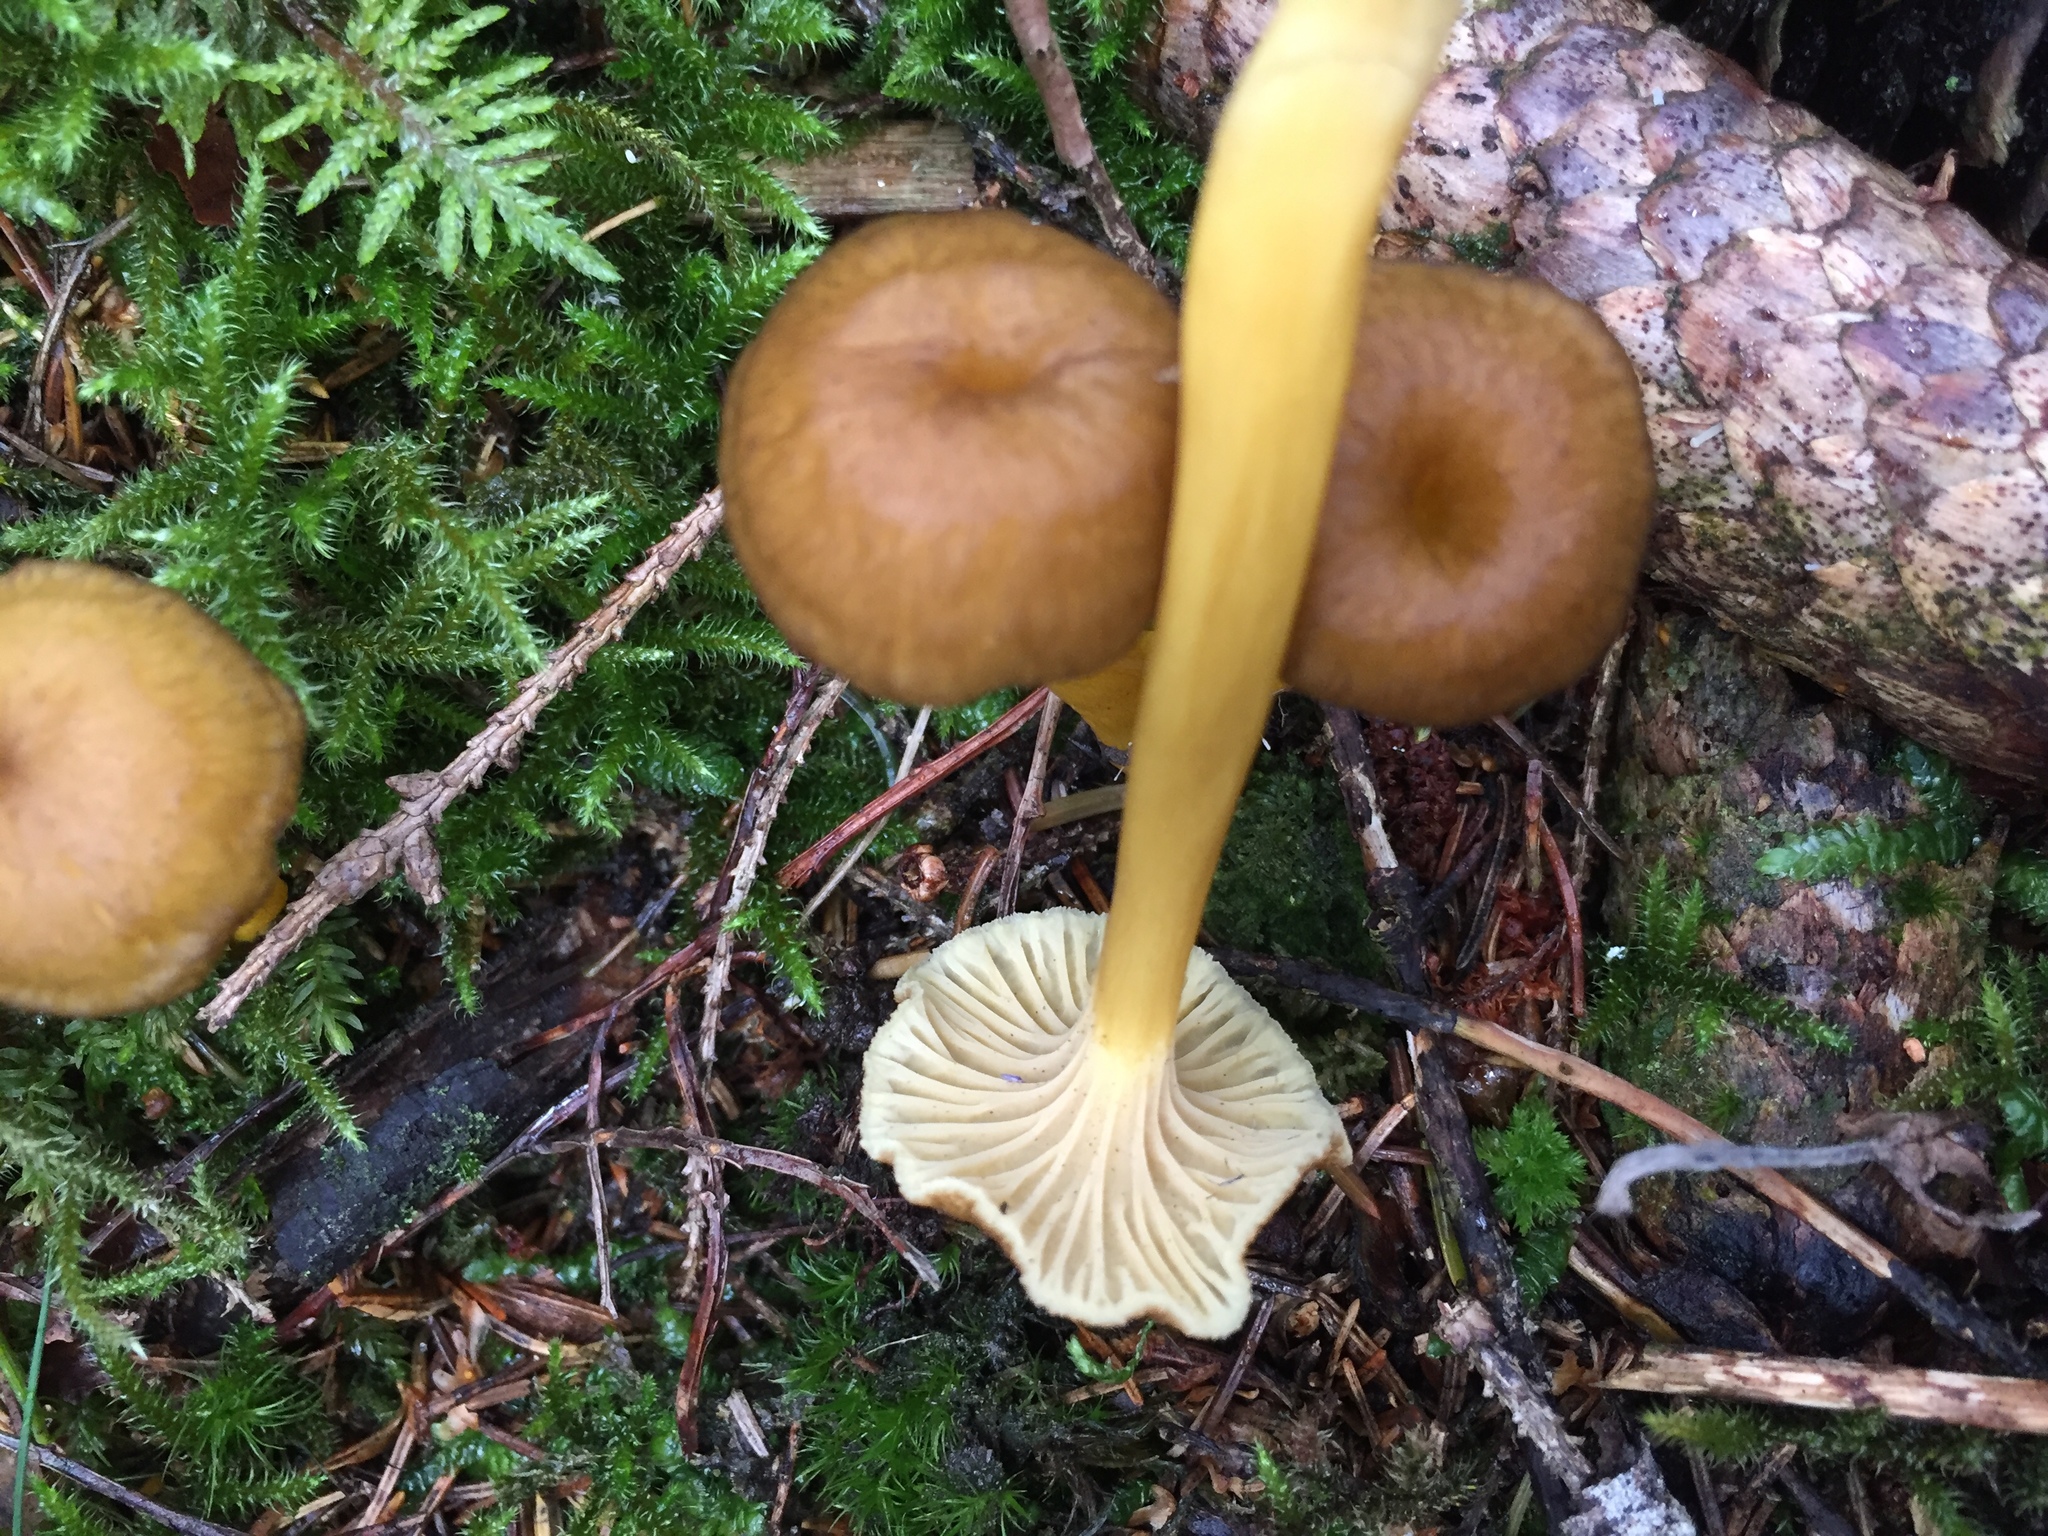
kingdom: Fungi
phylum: Basidiomycota
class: Agaricomycetes
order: Cantharellales
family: Hydnaceae
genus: Craterellus
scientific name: Craterellus tubaeformis
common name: Yellowfoot
